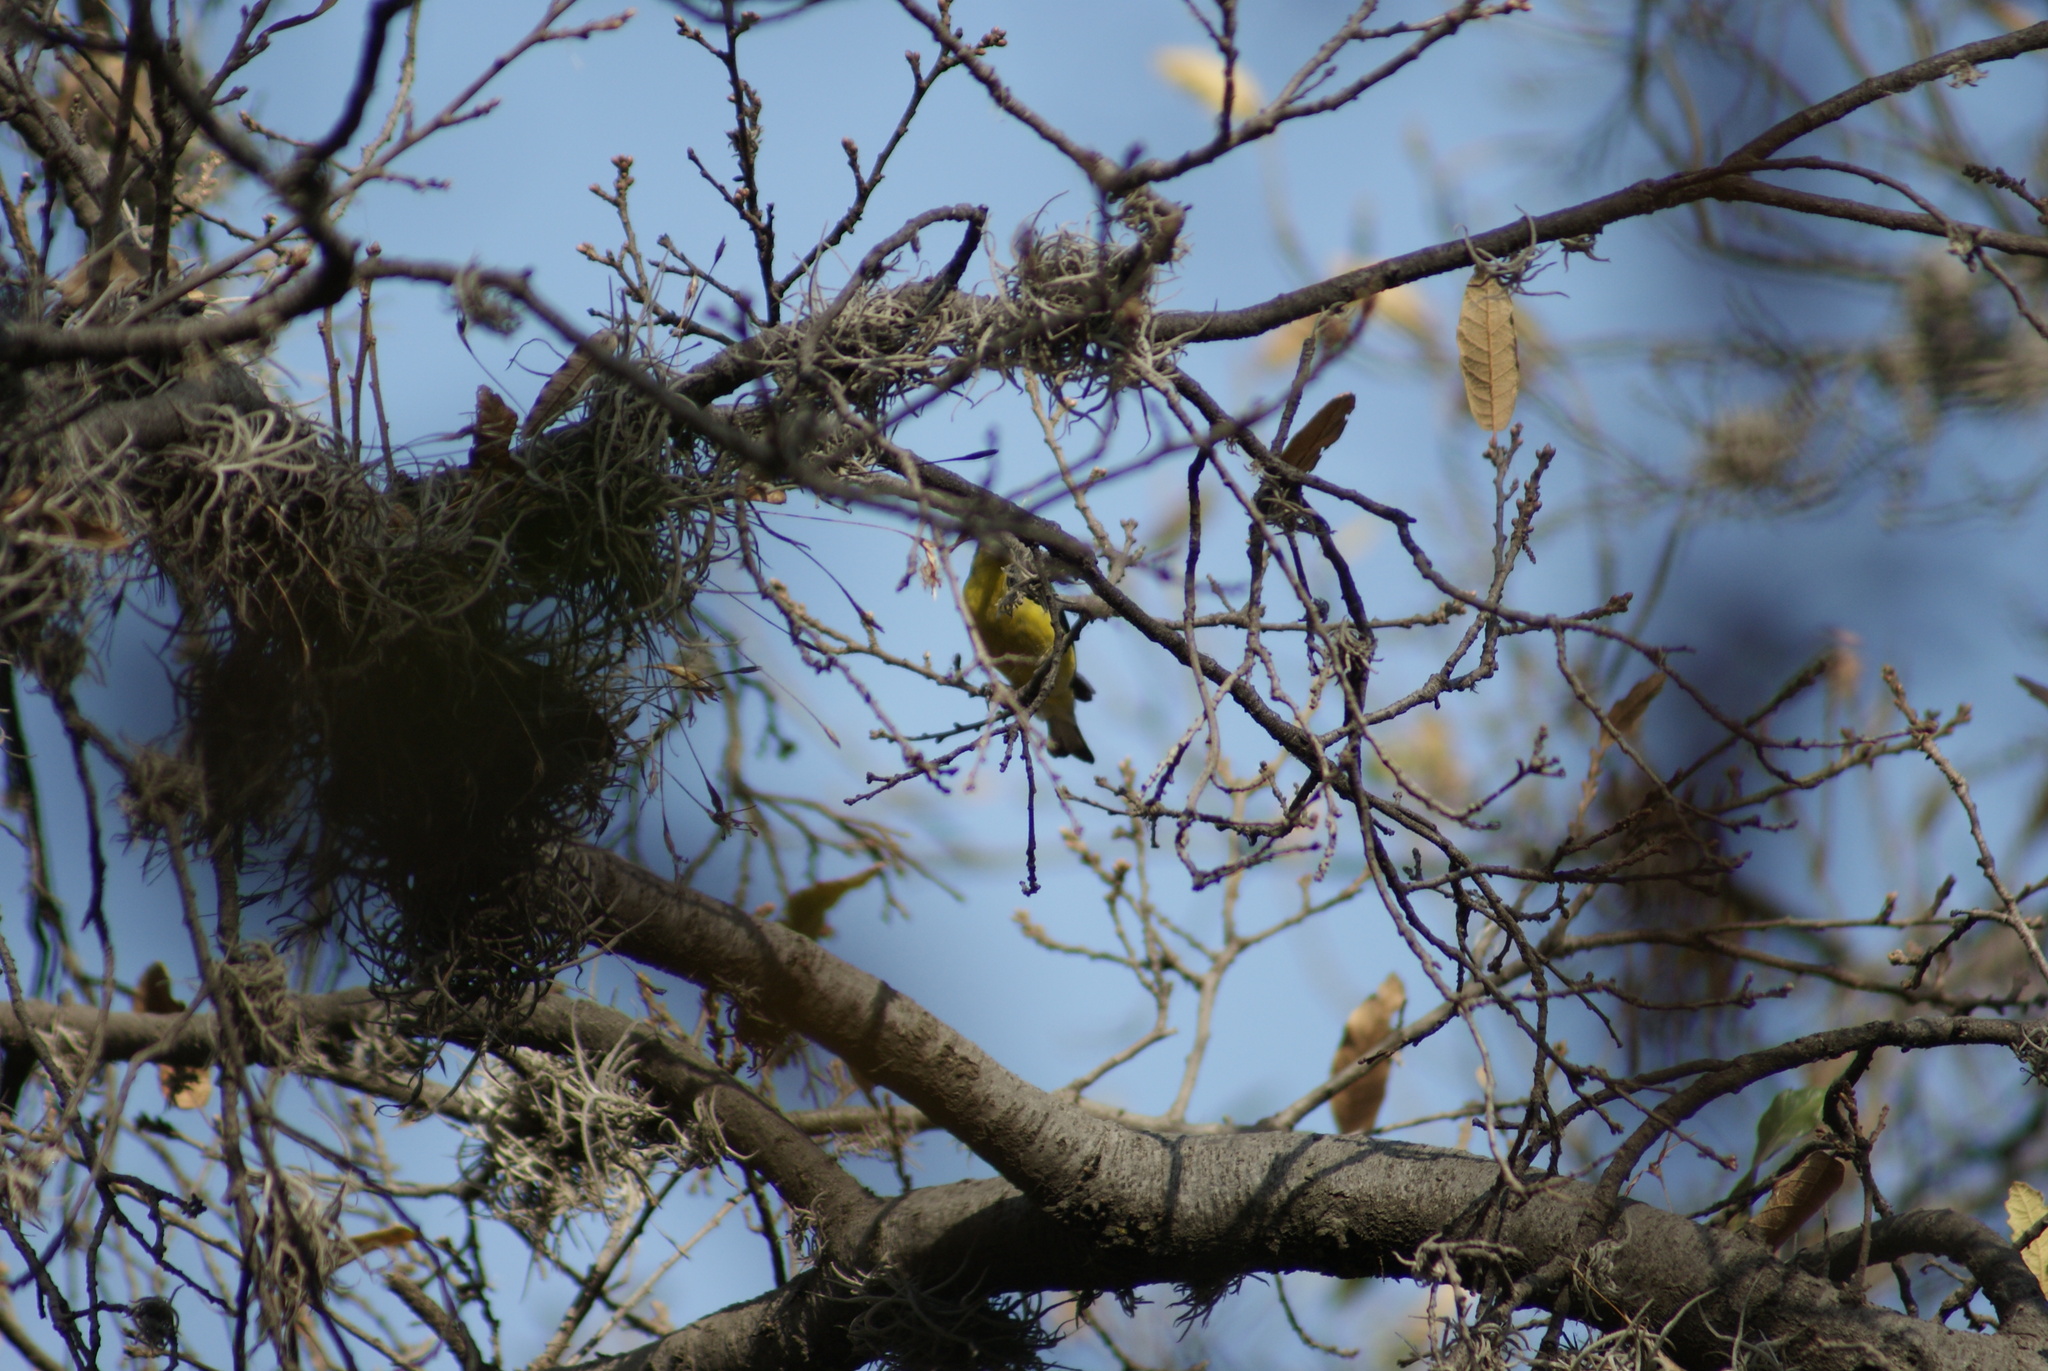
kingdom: Animalia
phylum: Chordata
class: Aves
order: Passeriformes
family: Fringillidae
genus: Spinus
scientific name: Spinus psaltria
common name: Lesser goldfinch
